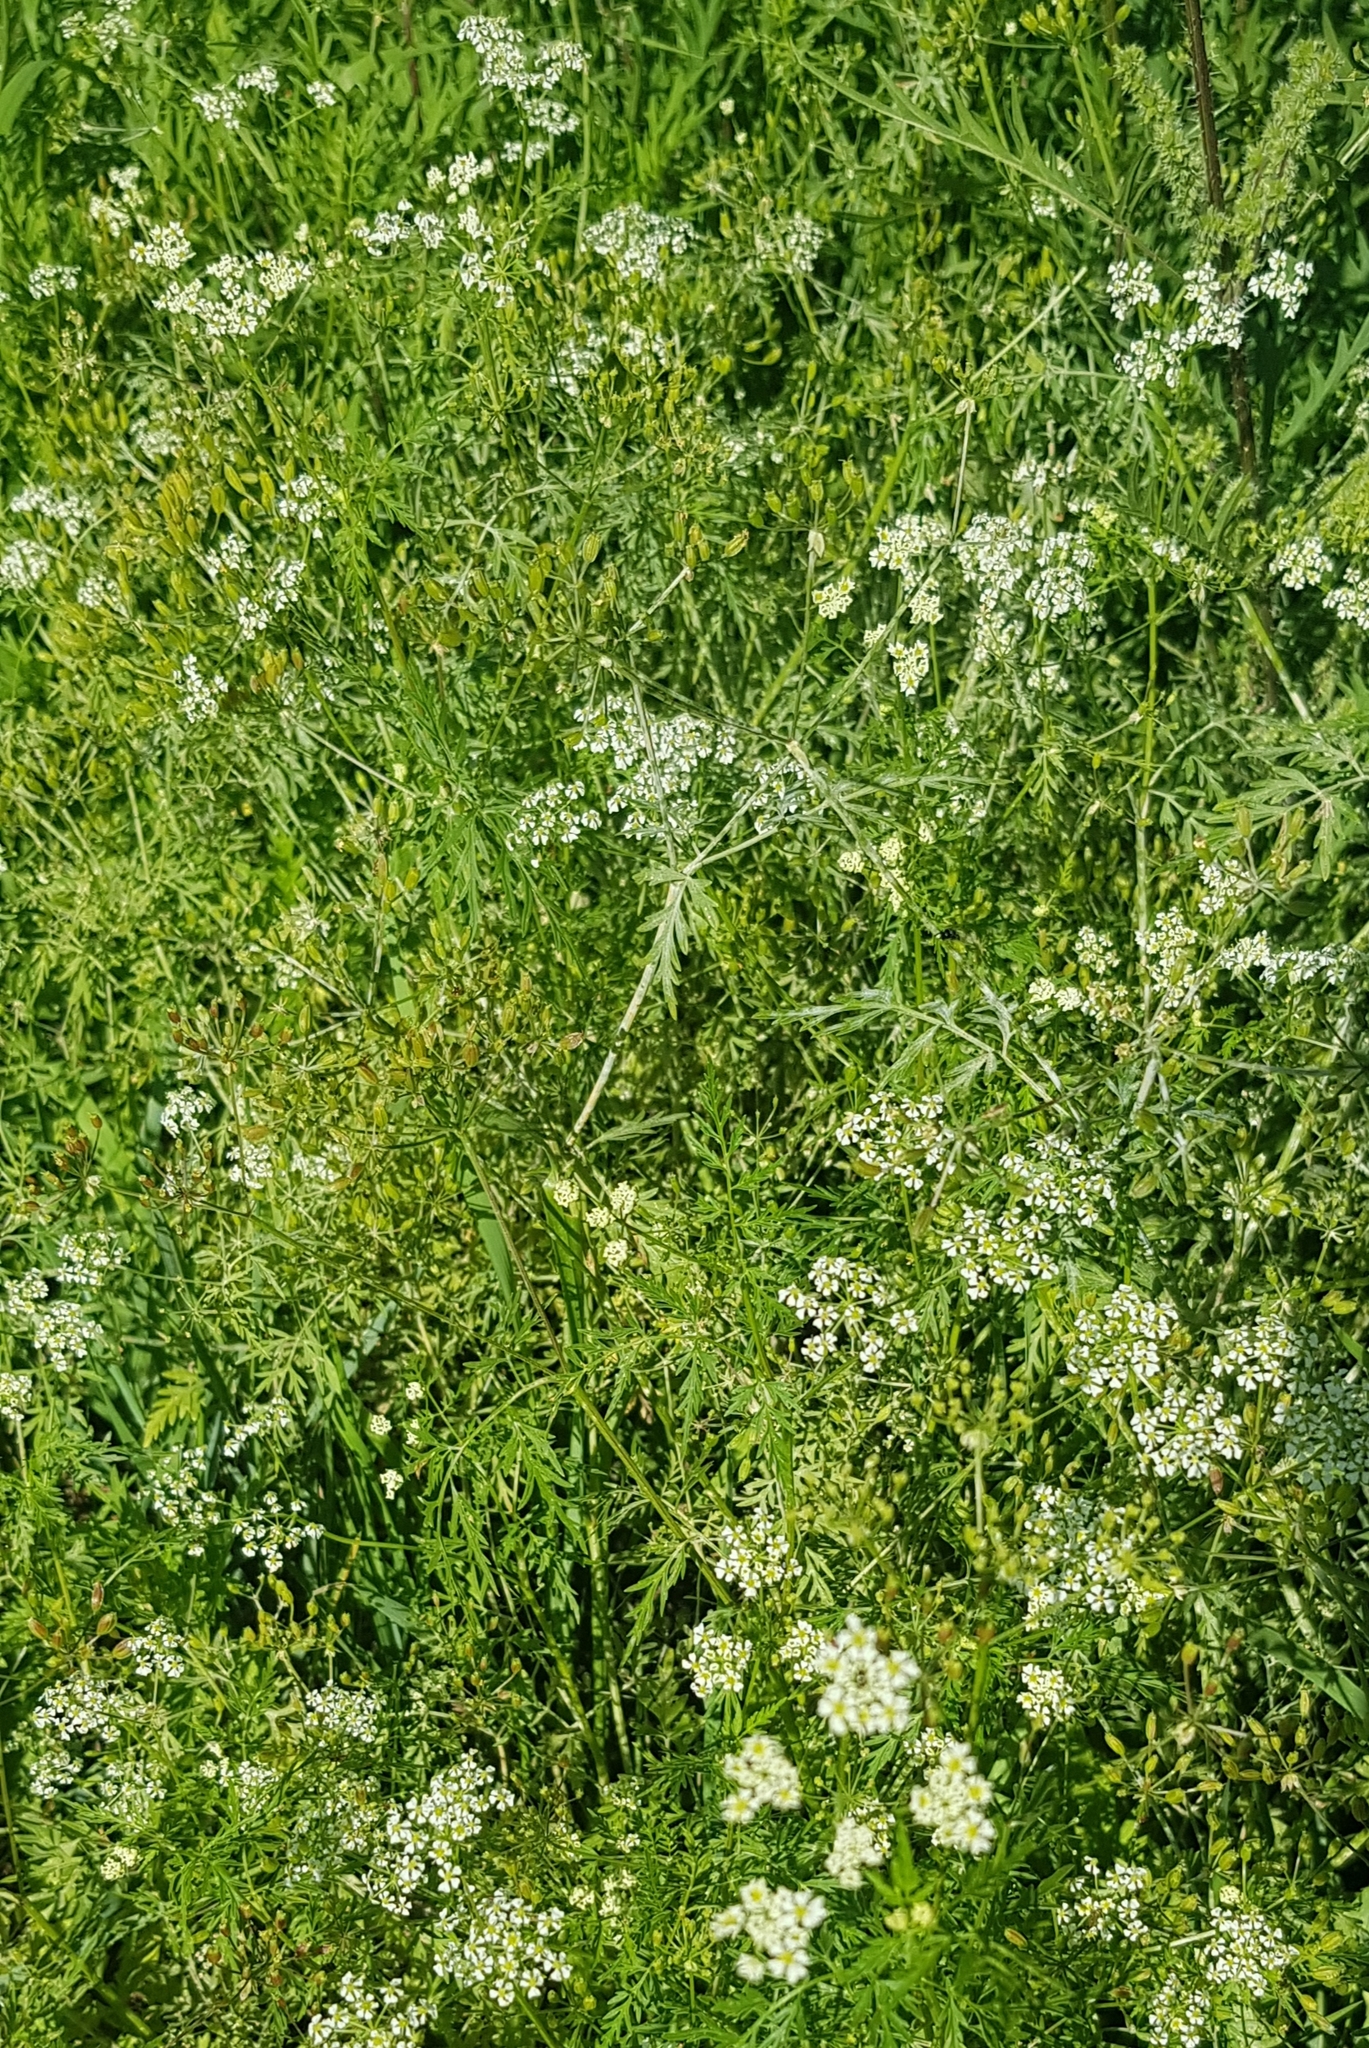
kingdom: Plantae
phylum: Tracheophyta
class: Magnoliopsida
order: Apiales
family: Apiaceae
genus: Sphallerocarpus
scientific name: Sphallerocarpus gracilis
